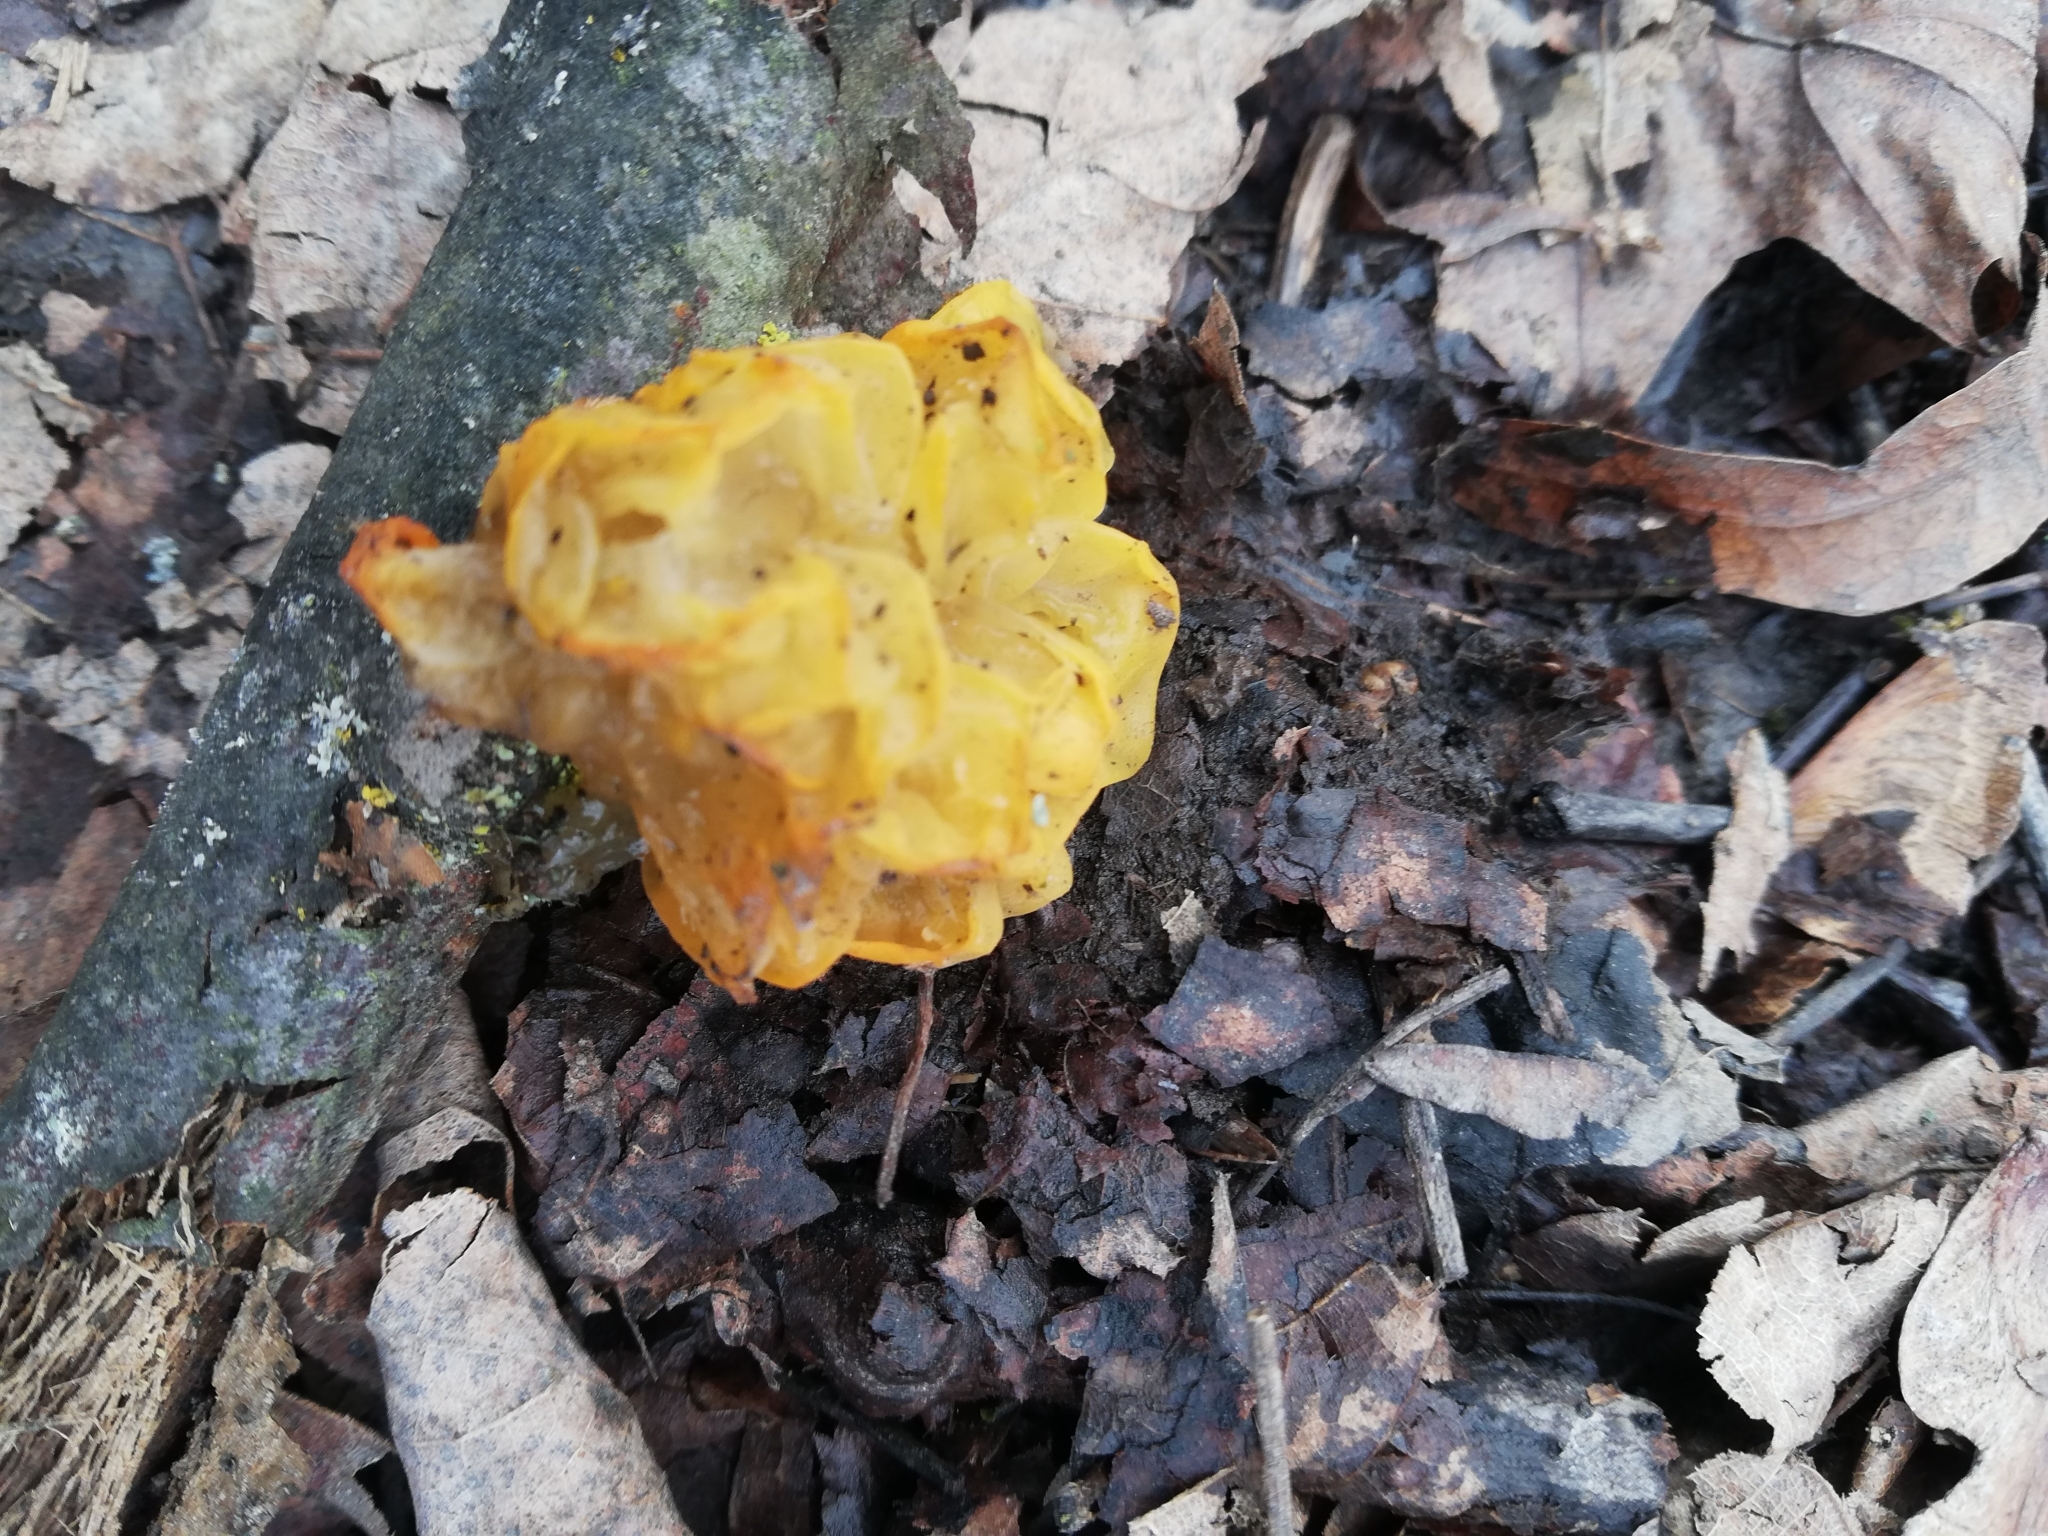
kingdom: Fungi
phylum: Basidiomycota
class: Tremellomycetes
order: Tremellales
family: Tremellaceae
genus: Tremella
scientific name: Tremella mesenterica
